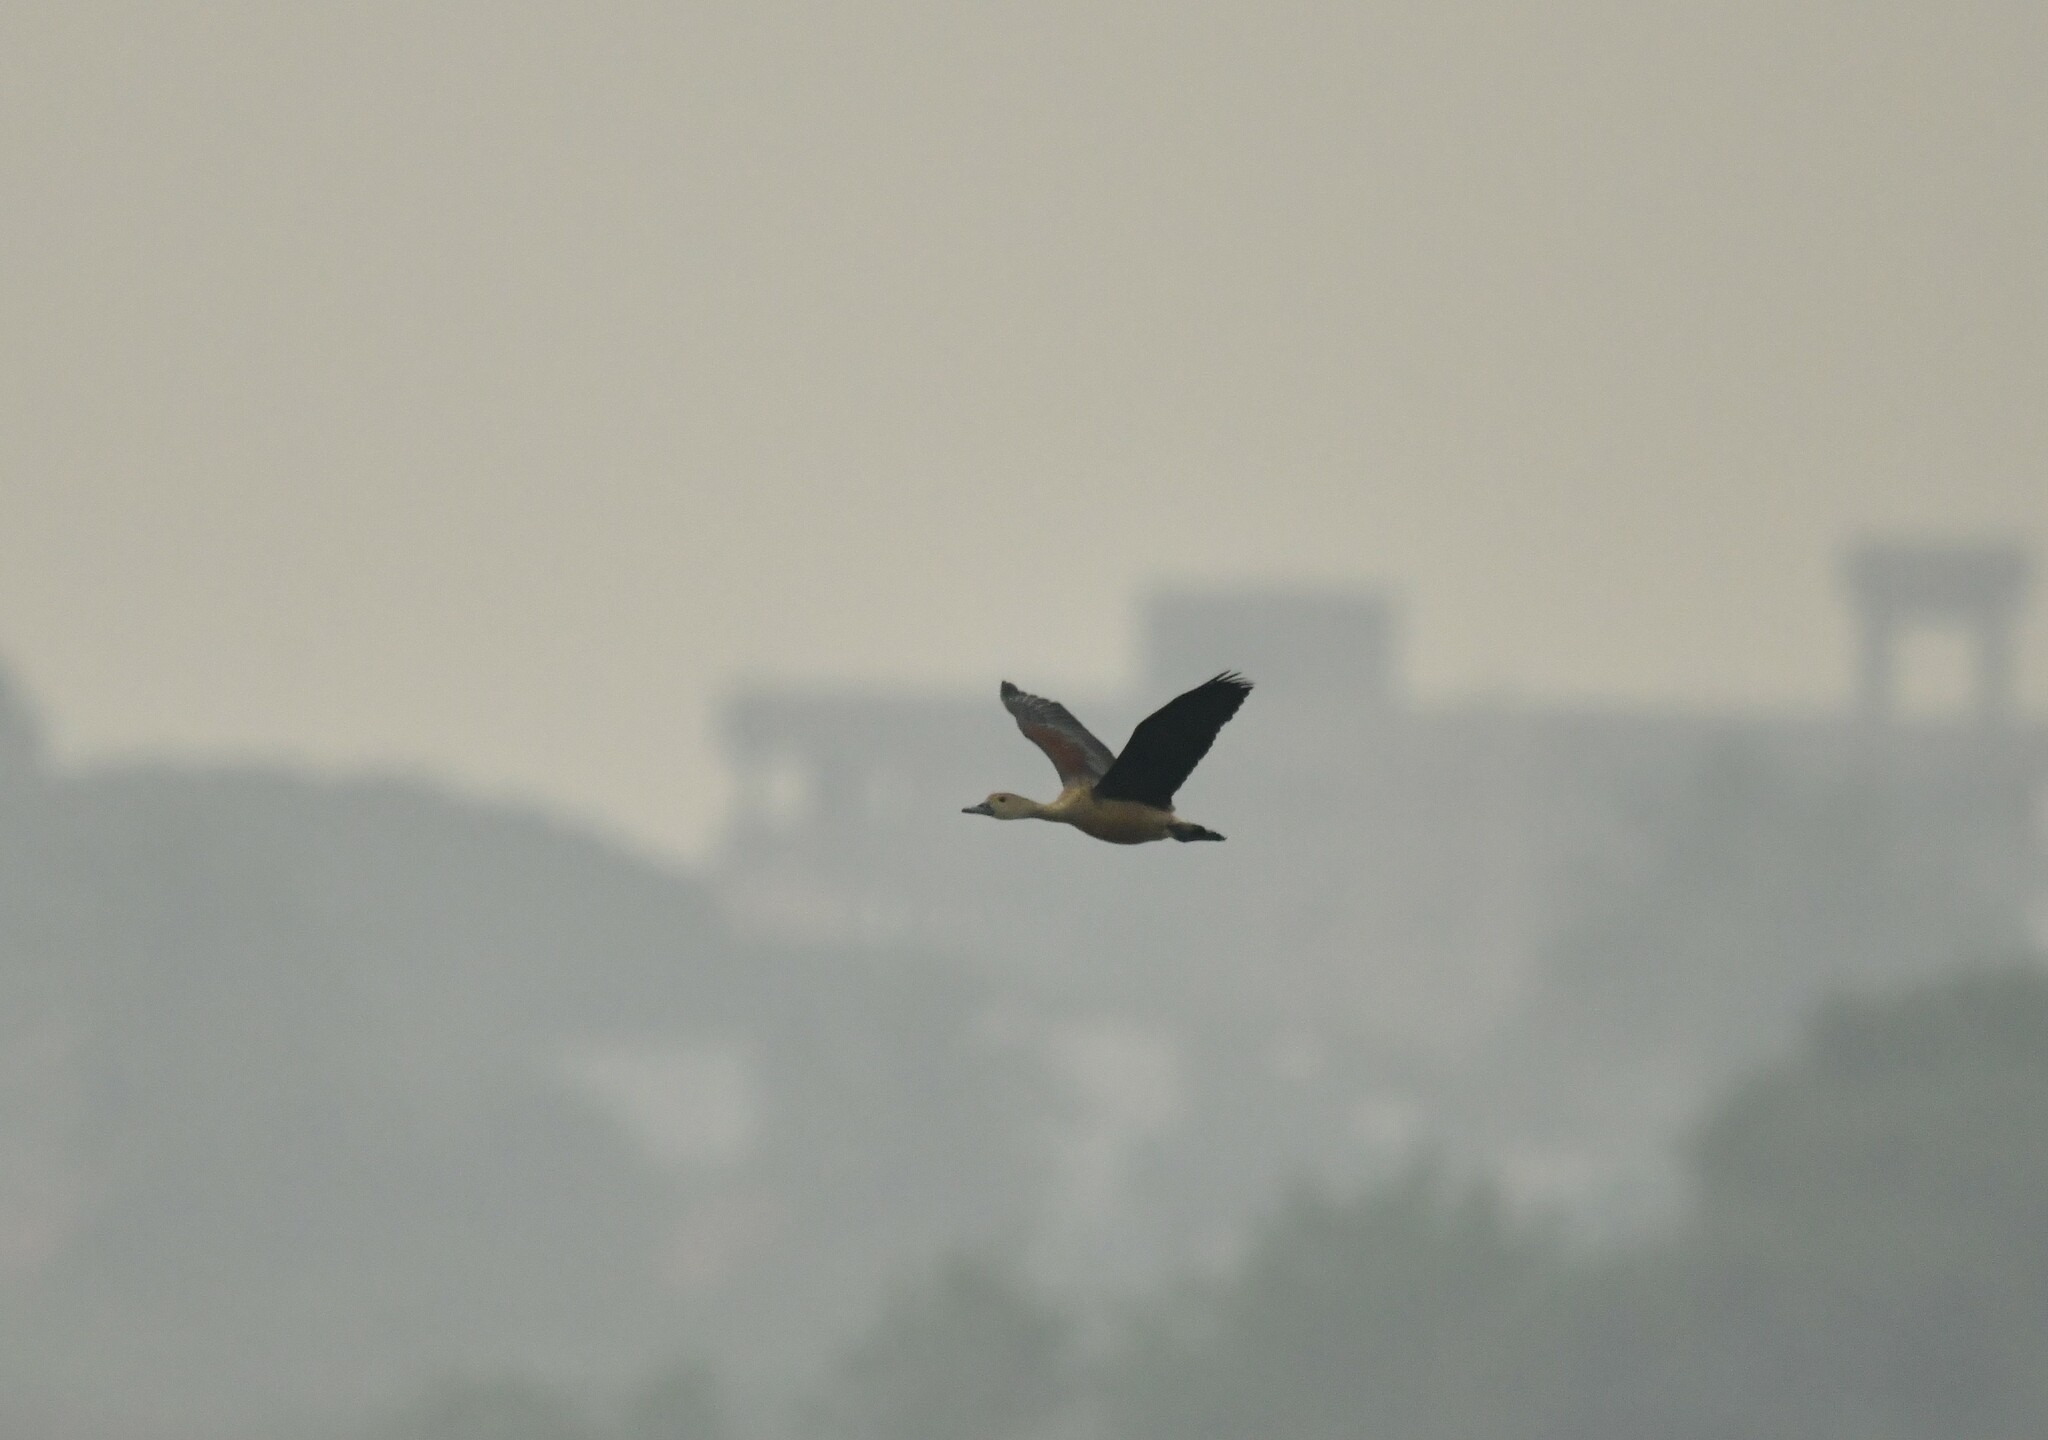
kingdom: Animalia
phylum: Chordata
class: Aves
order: Anseriformes
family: Anatidae
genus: Dendrocygna
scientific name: Dendrocygna javanica
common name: Lesser whistling-duck
